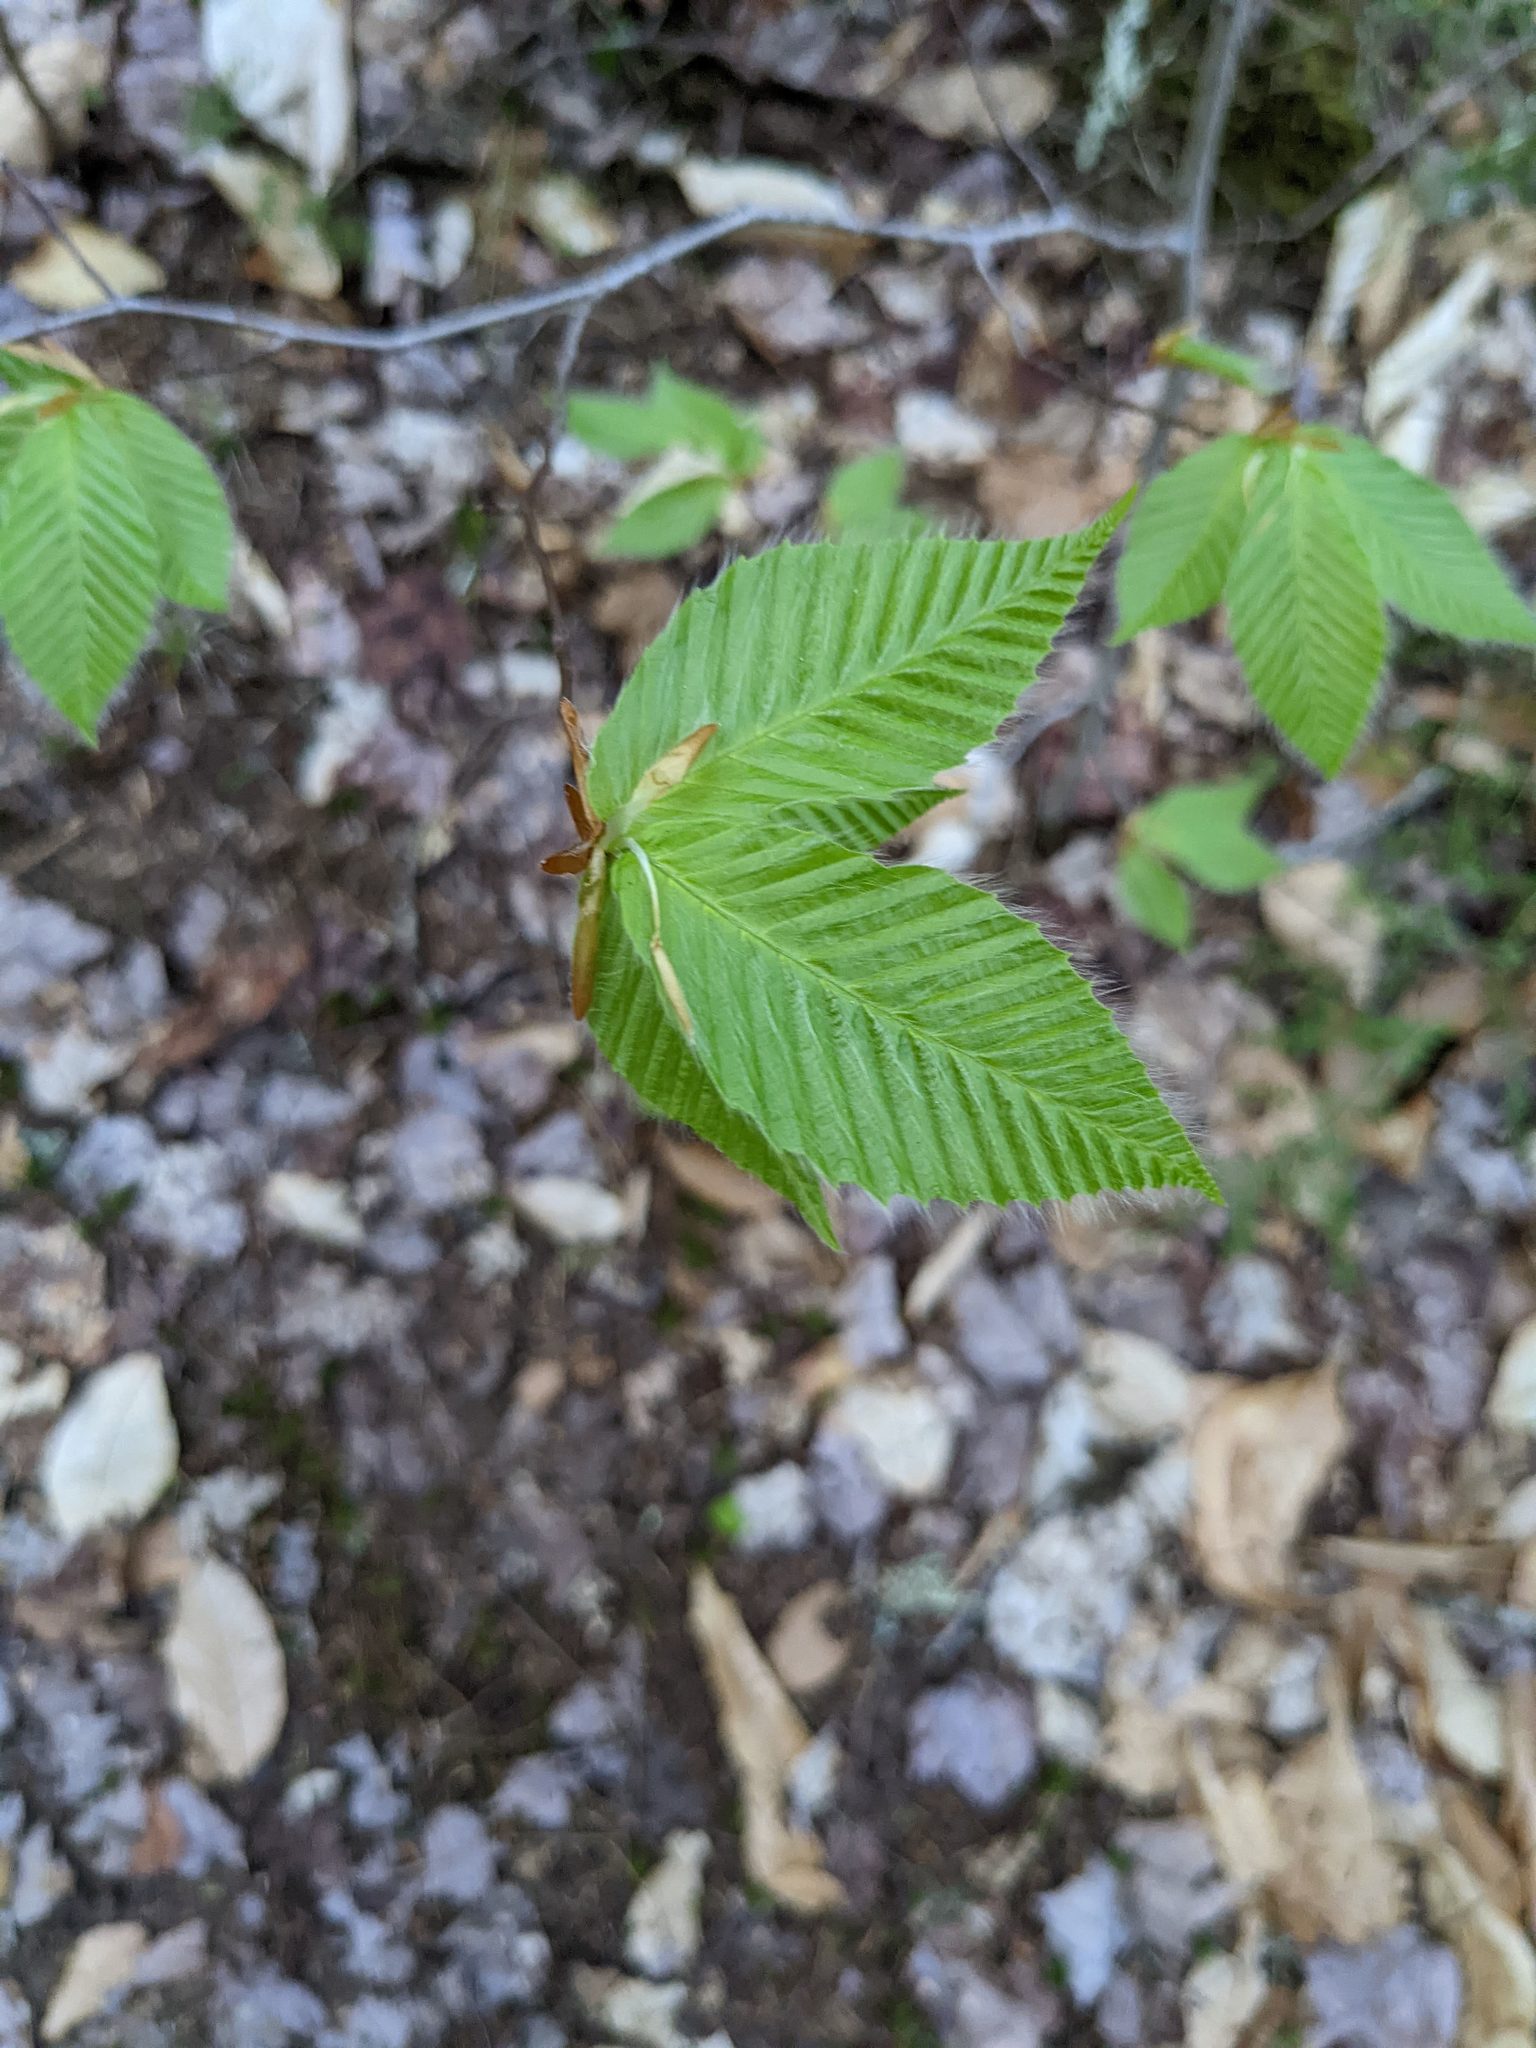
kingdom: Plantae
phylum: Tracheophyta
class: Magnoliopsida
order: Fagales
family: Fagaceae
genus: Fagus
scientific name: Fagus grandifolia
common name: American beech
